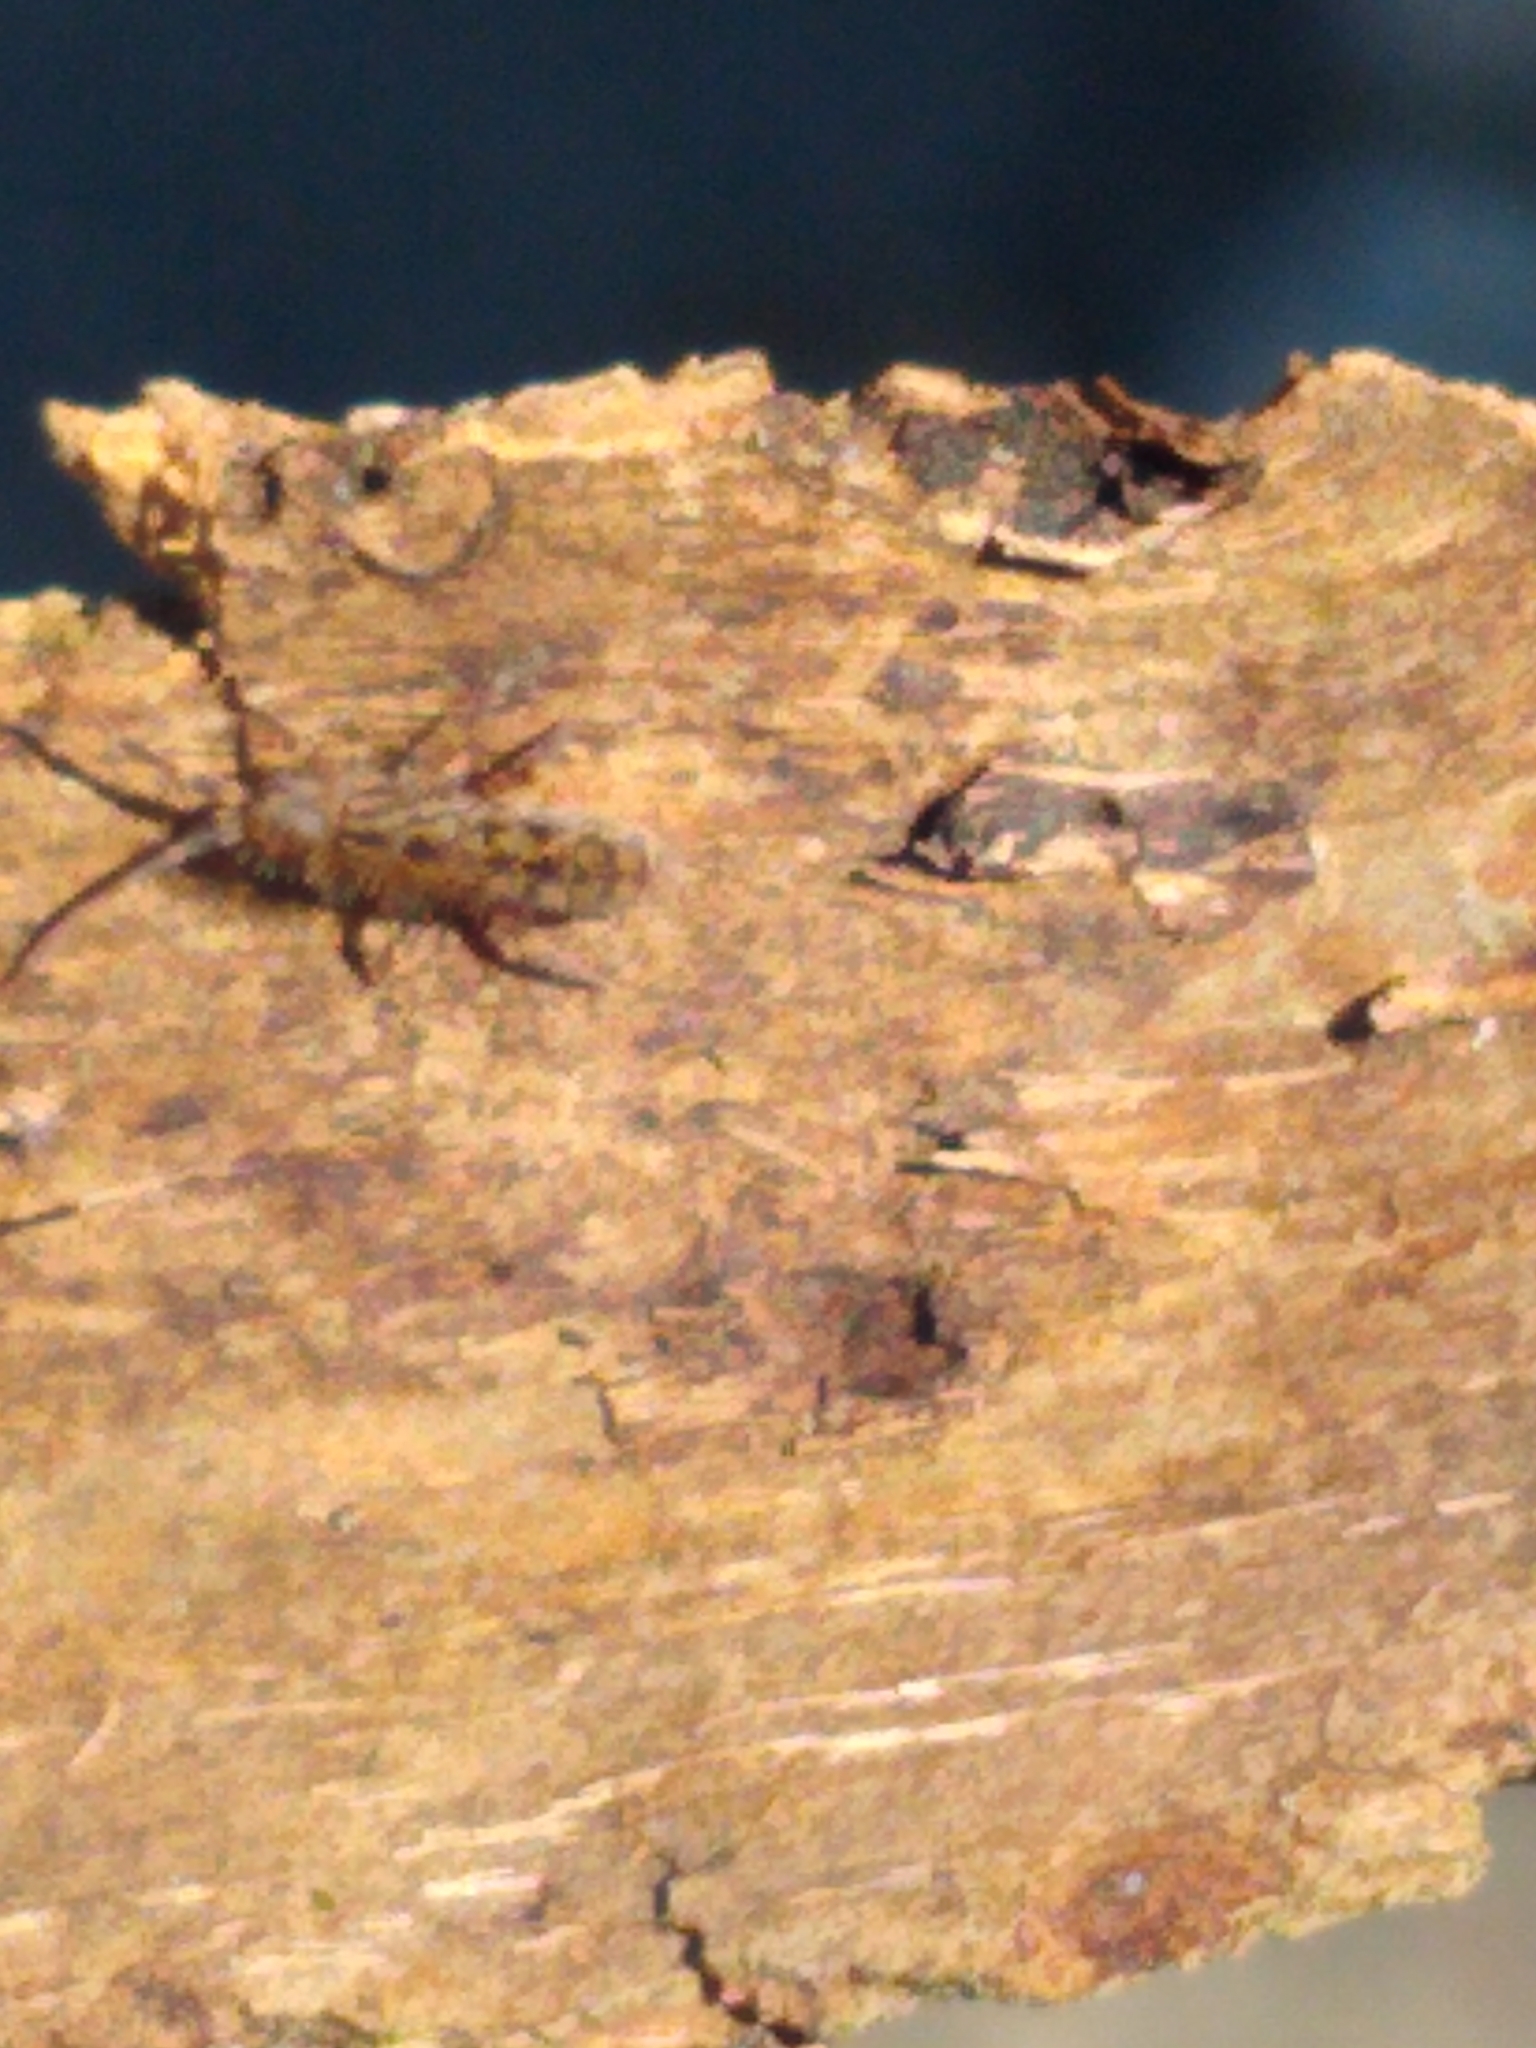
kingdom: Animalia
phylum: Arthropoda
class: Collembola
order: Entomobryomorpha
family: Orchesellidae
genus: Orchesella
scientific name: Orchesella villosa
